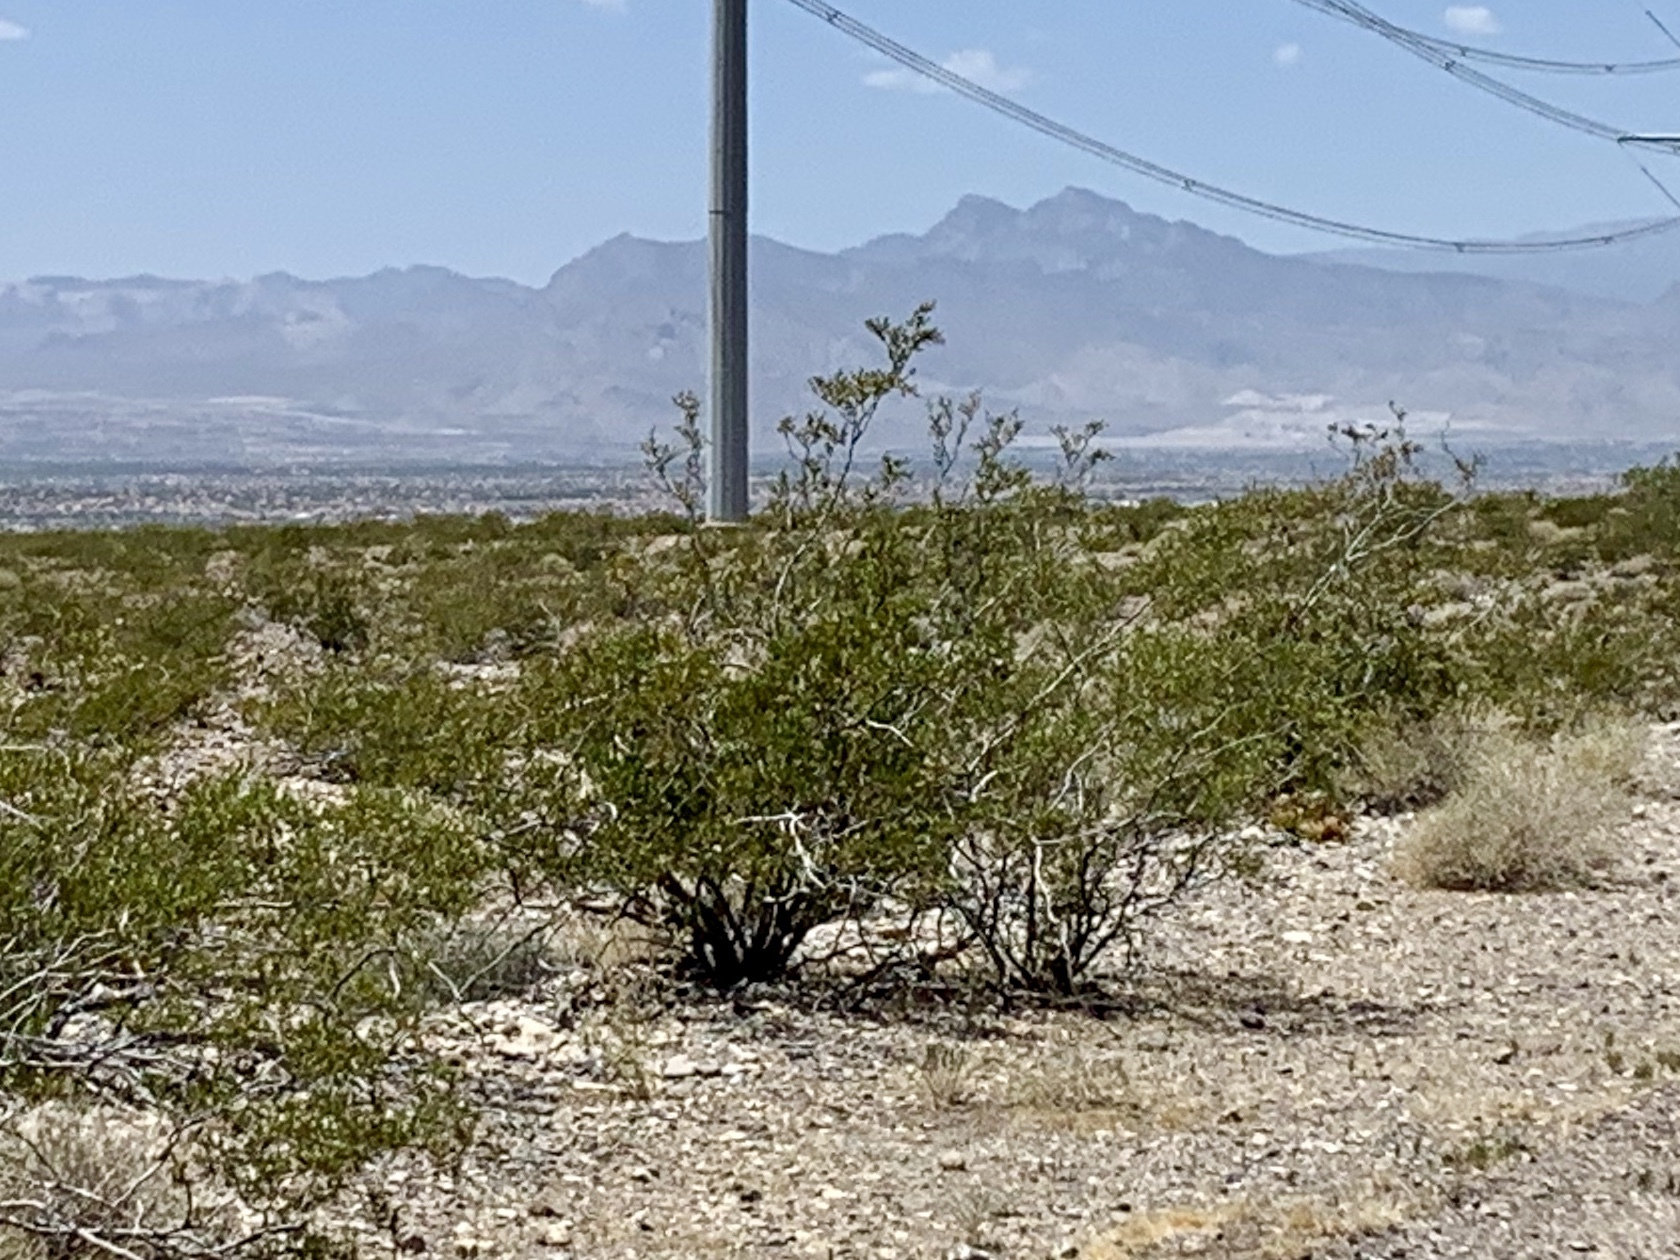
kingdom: Plantae
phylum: Tracheophyta
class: Magnoliopsida
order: Zygophyllales
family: Zygophyllaceae
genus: Larrea
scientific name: Larrea tridentata
